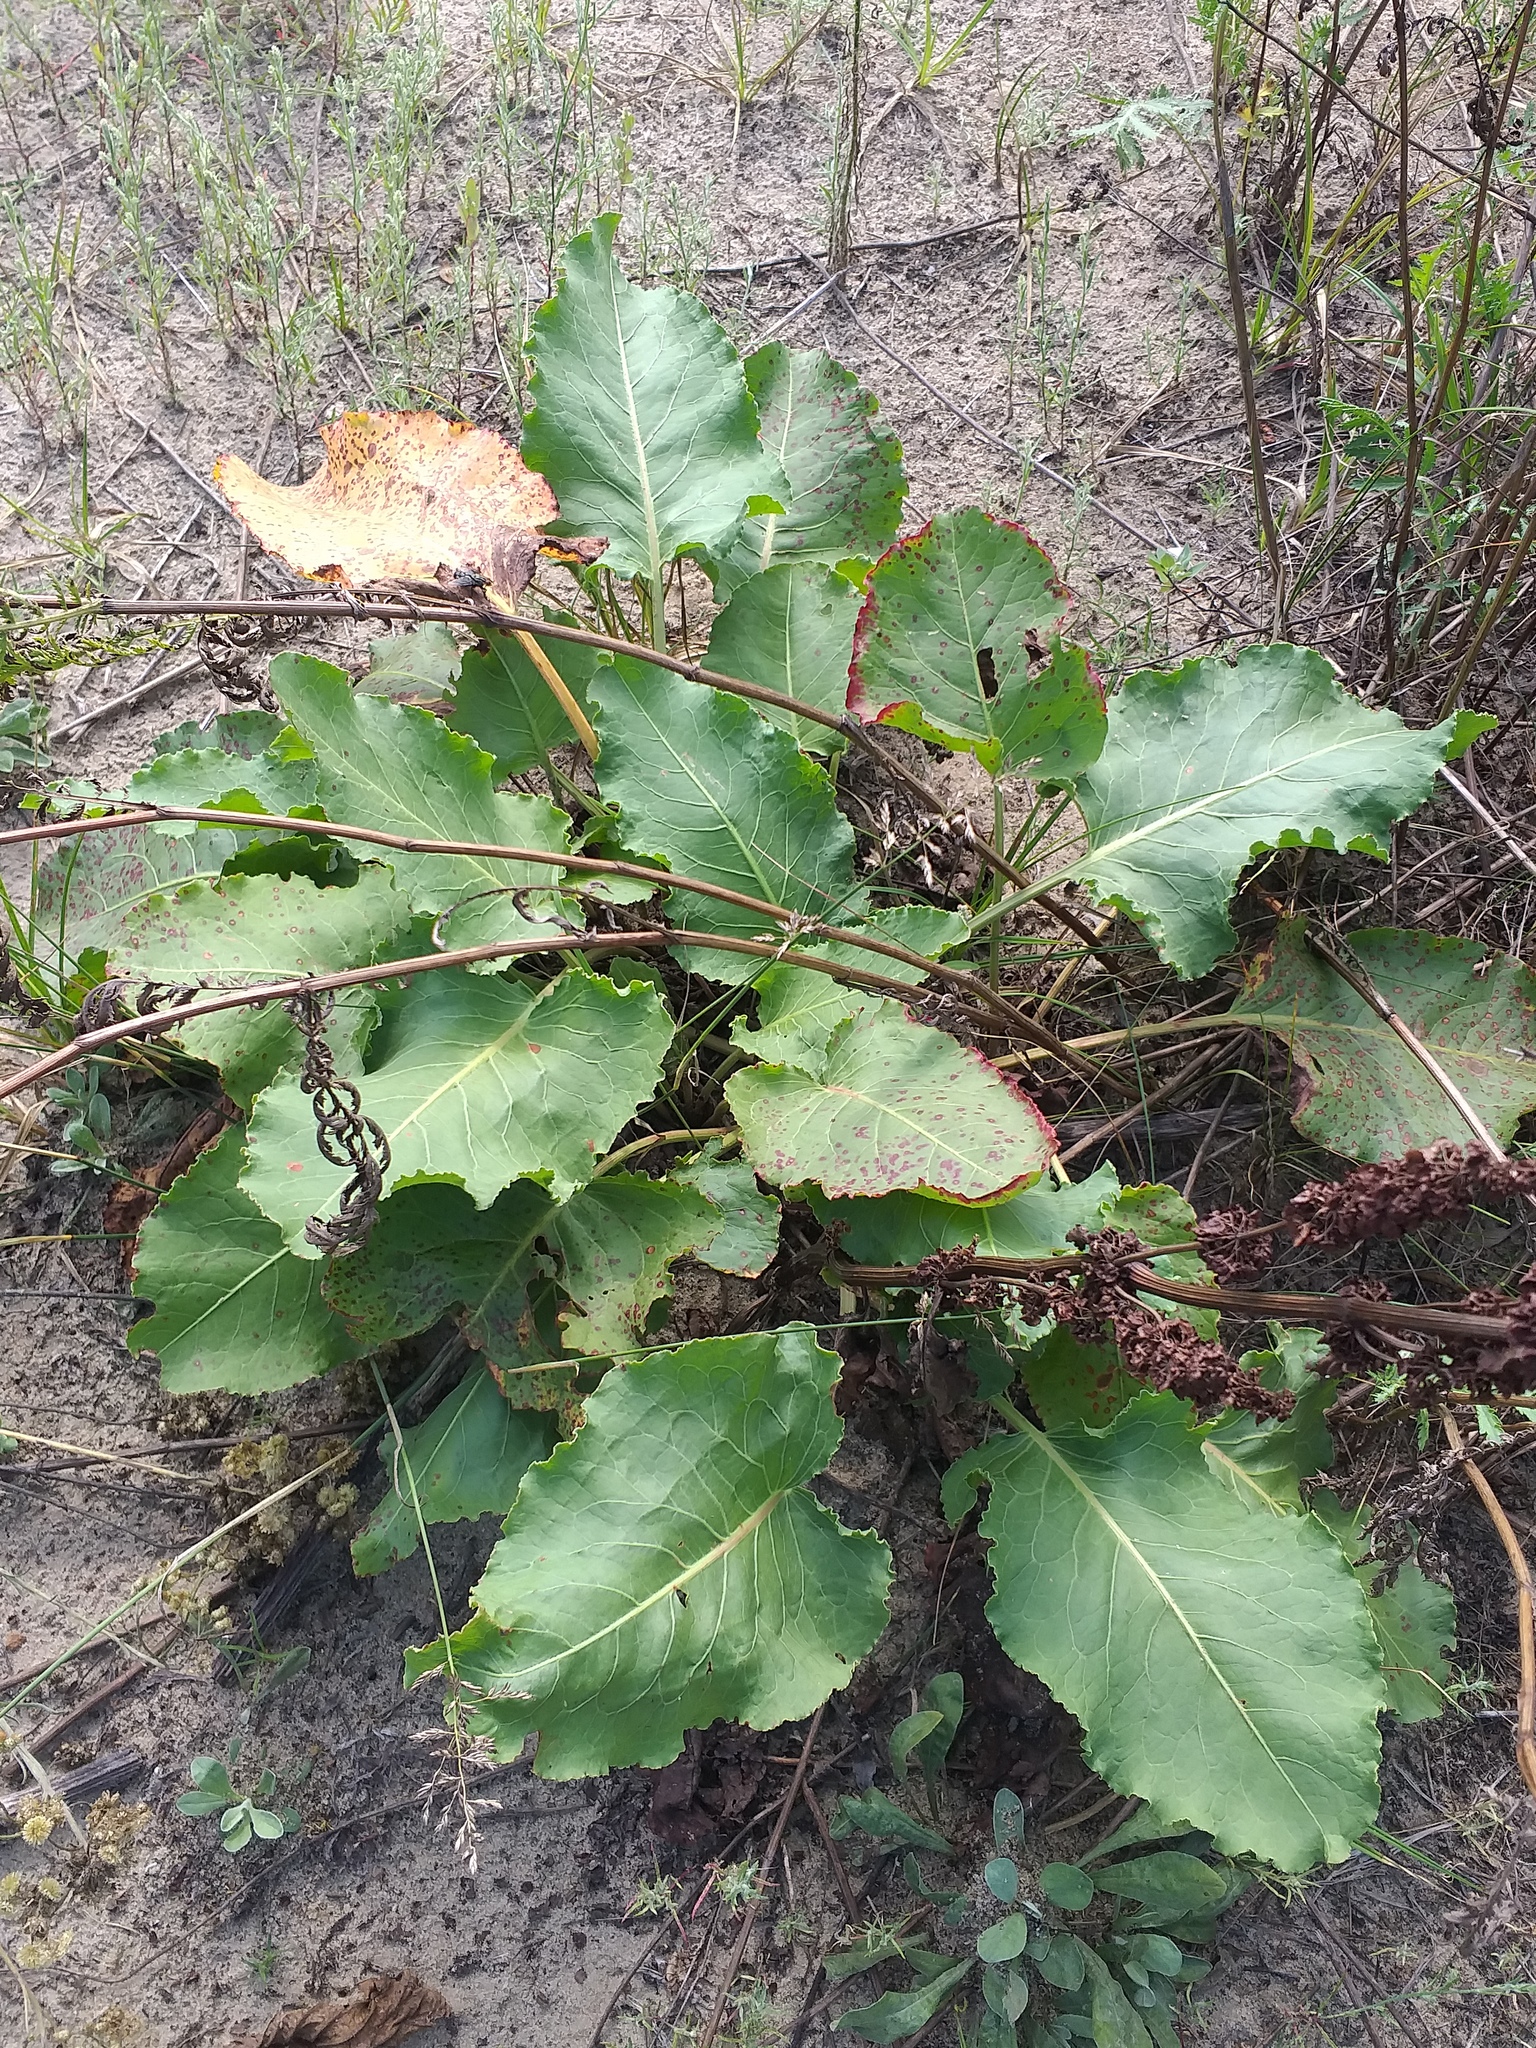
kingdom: Plantae
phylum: Tracheophyta
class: Magnoliopsida
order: Caryophyllales
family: Polygonaceae
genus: Rumex
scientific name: Rumex confertus
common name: Russian dock
